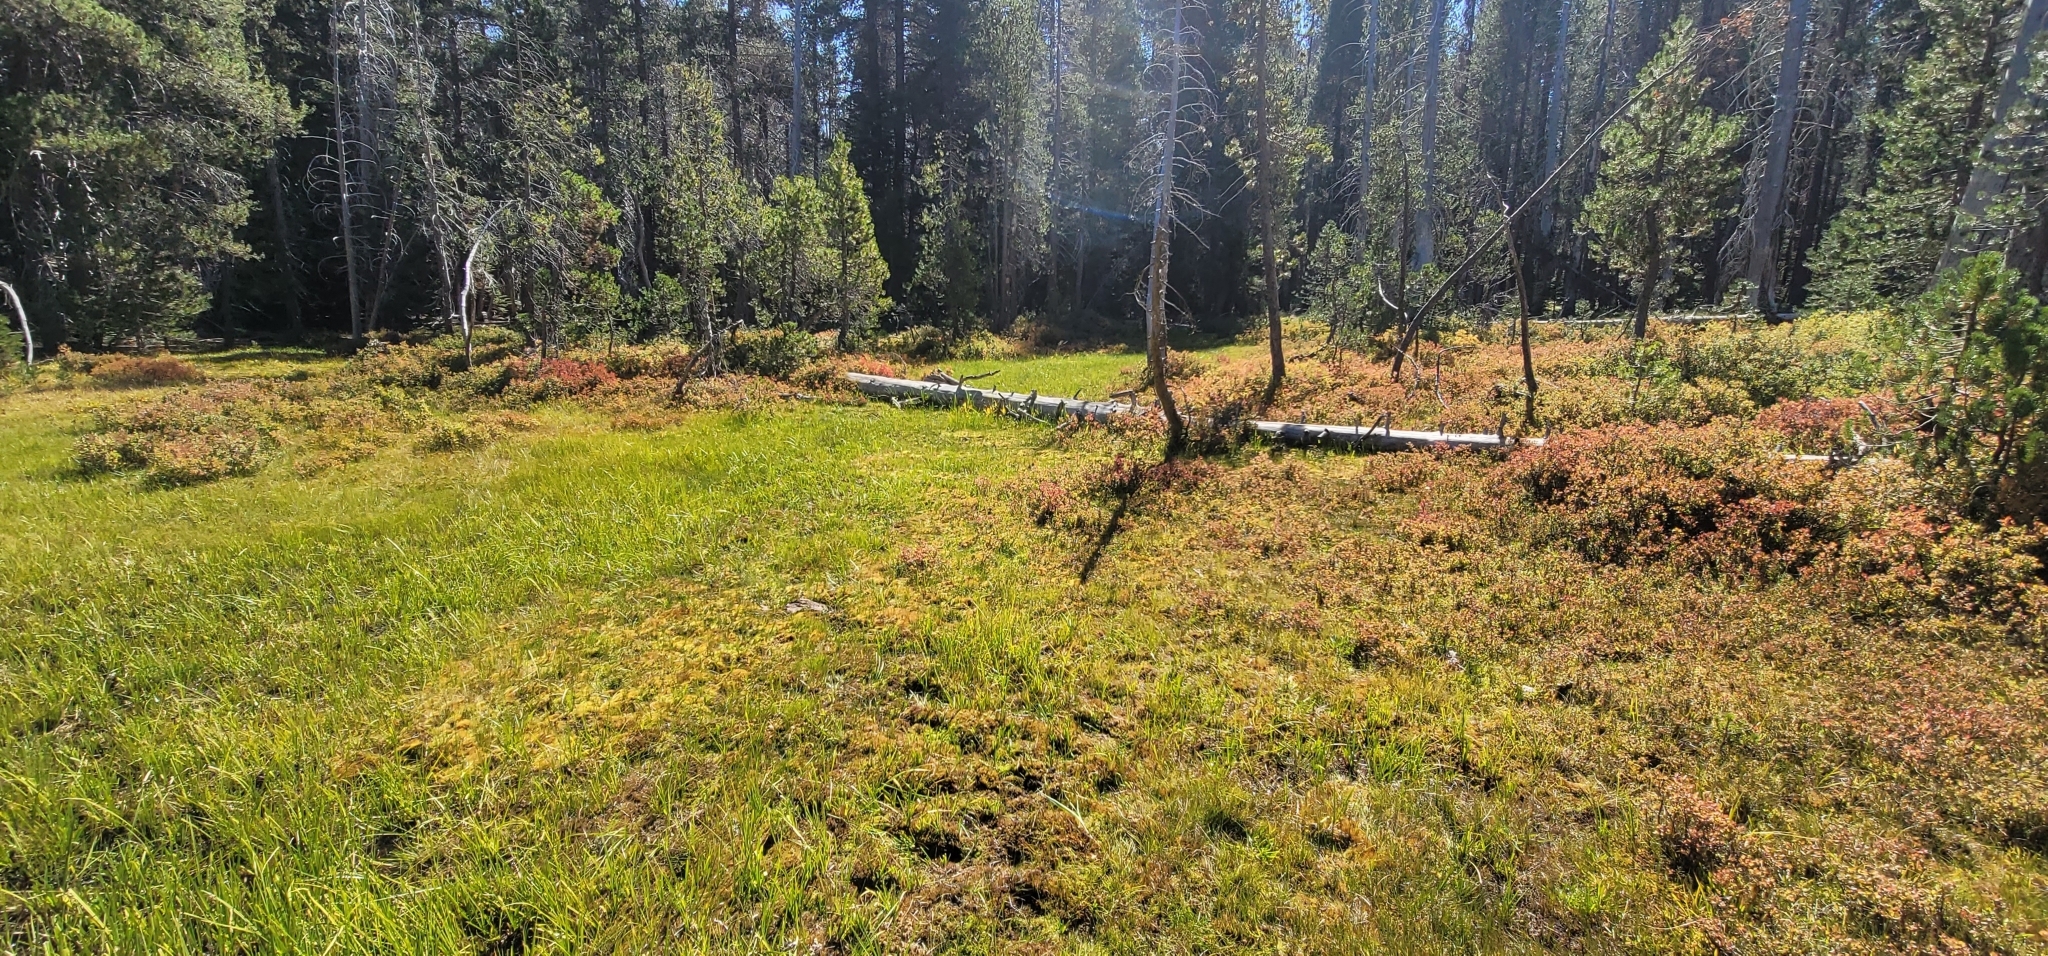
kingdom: Plantae
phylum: Bryophyta
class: Bryopsida
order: Splachnales
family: Meesiaceae
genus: Meesia
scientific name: Meesia triquetra
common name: Three-angled thread moss
